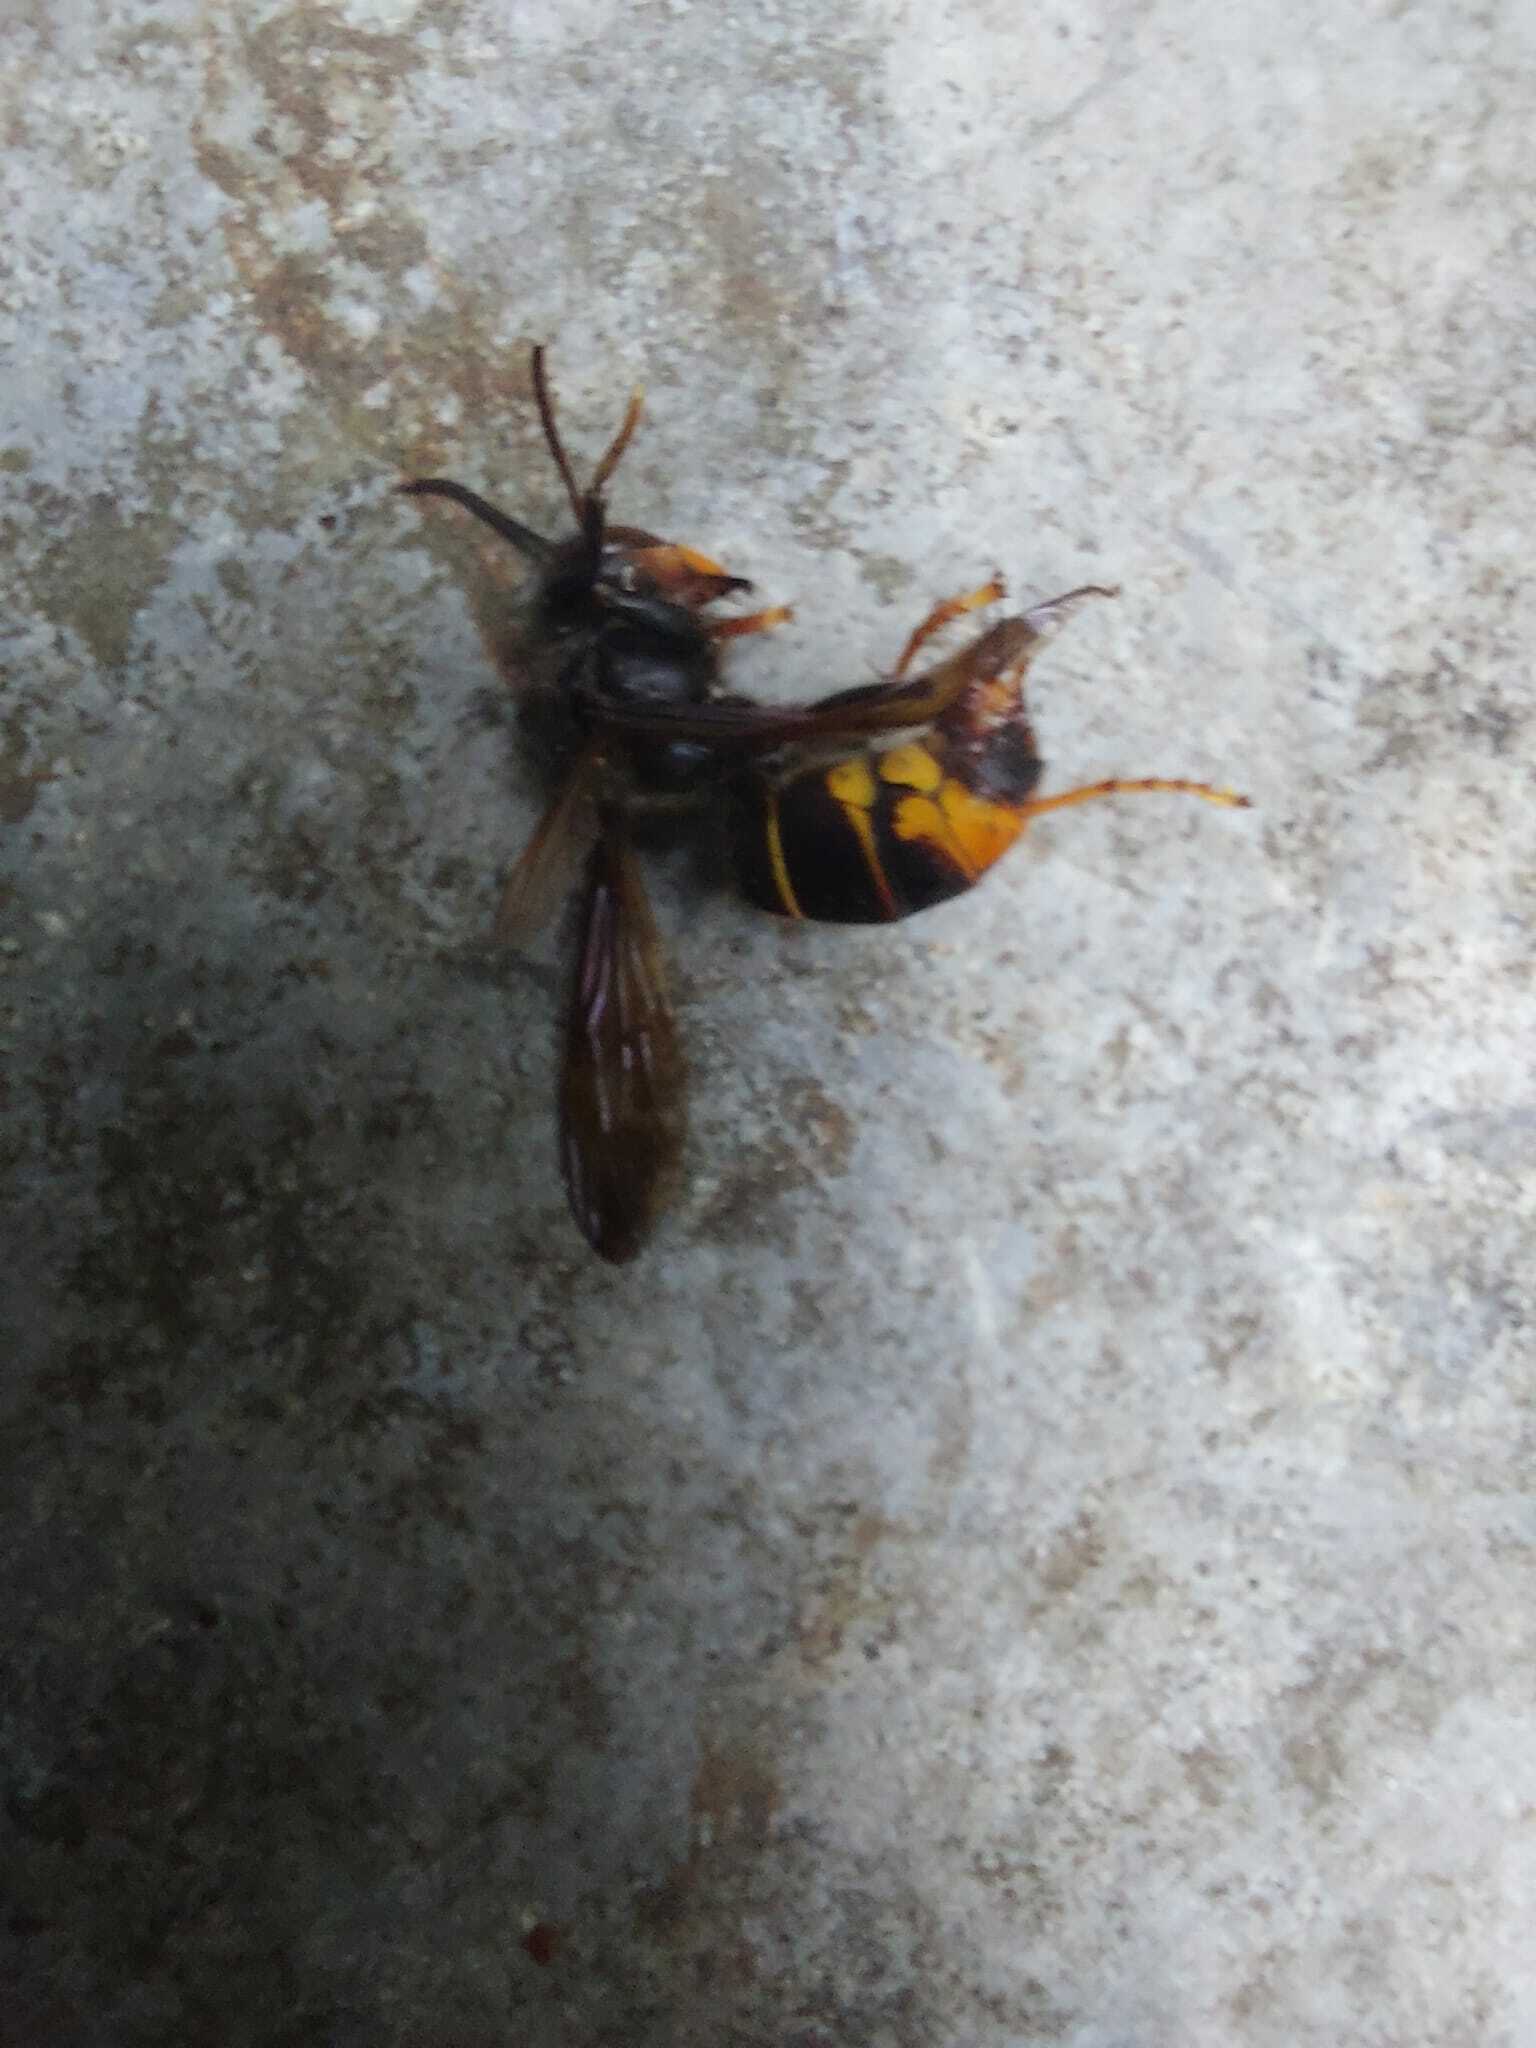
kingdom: Animalia
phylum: Arthropoda
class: Insecta
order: Hymenoptera
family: Vespidae
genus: Vespa
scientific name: Vespa velutina
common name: Asian hornet
